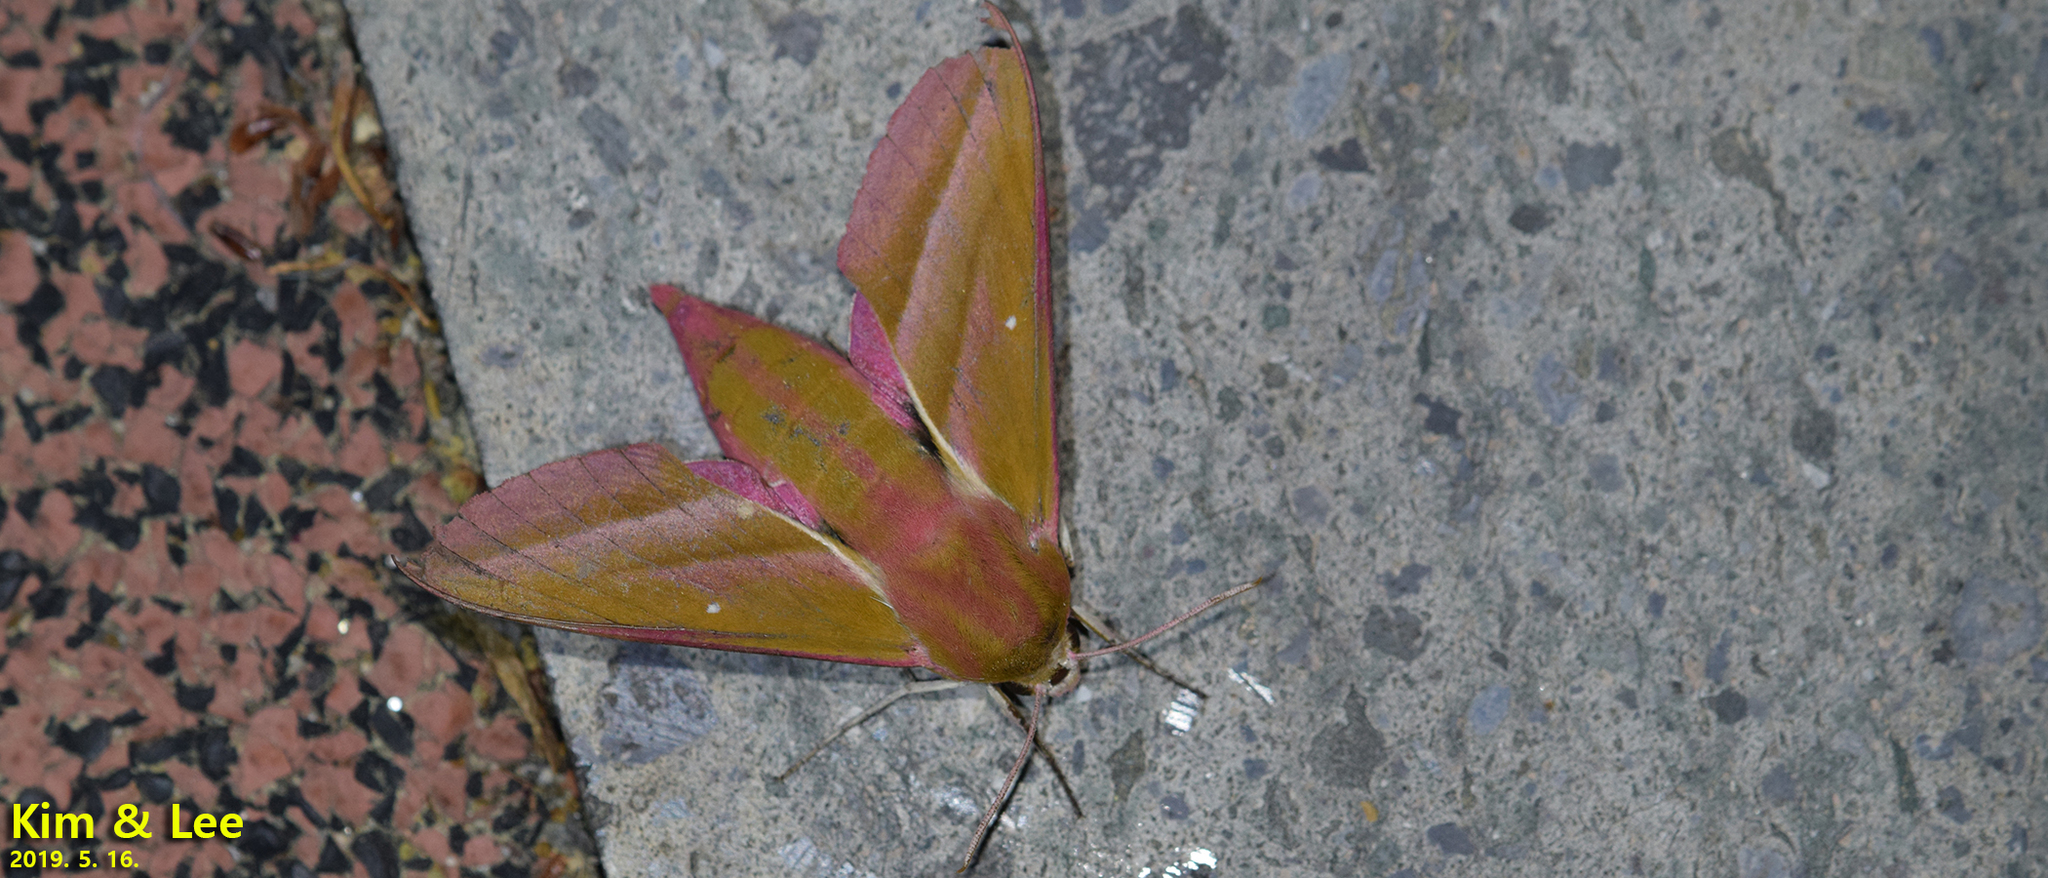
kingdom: Animalia
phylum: Arthropoda
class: Insecta
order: Lepidoptera
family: Sphingidae
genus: Deilephila
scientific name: Deilephila elpenor
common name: Elephant hawk-moth
